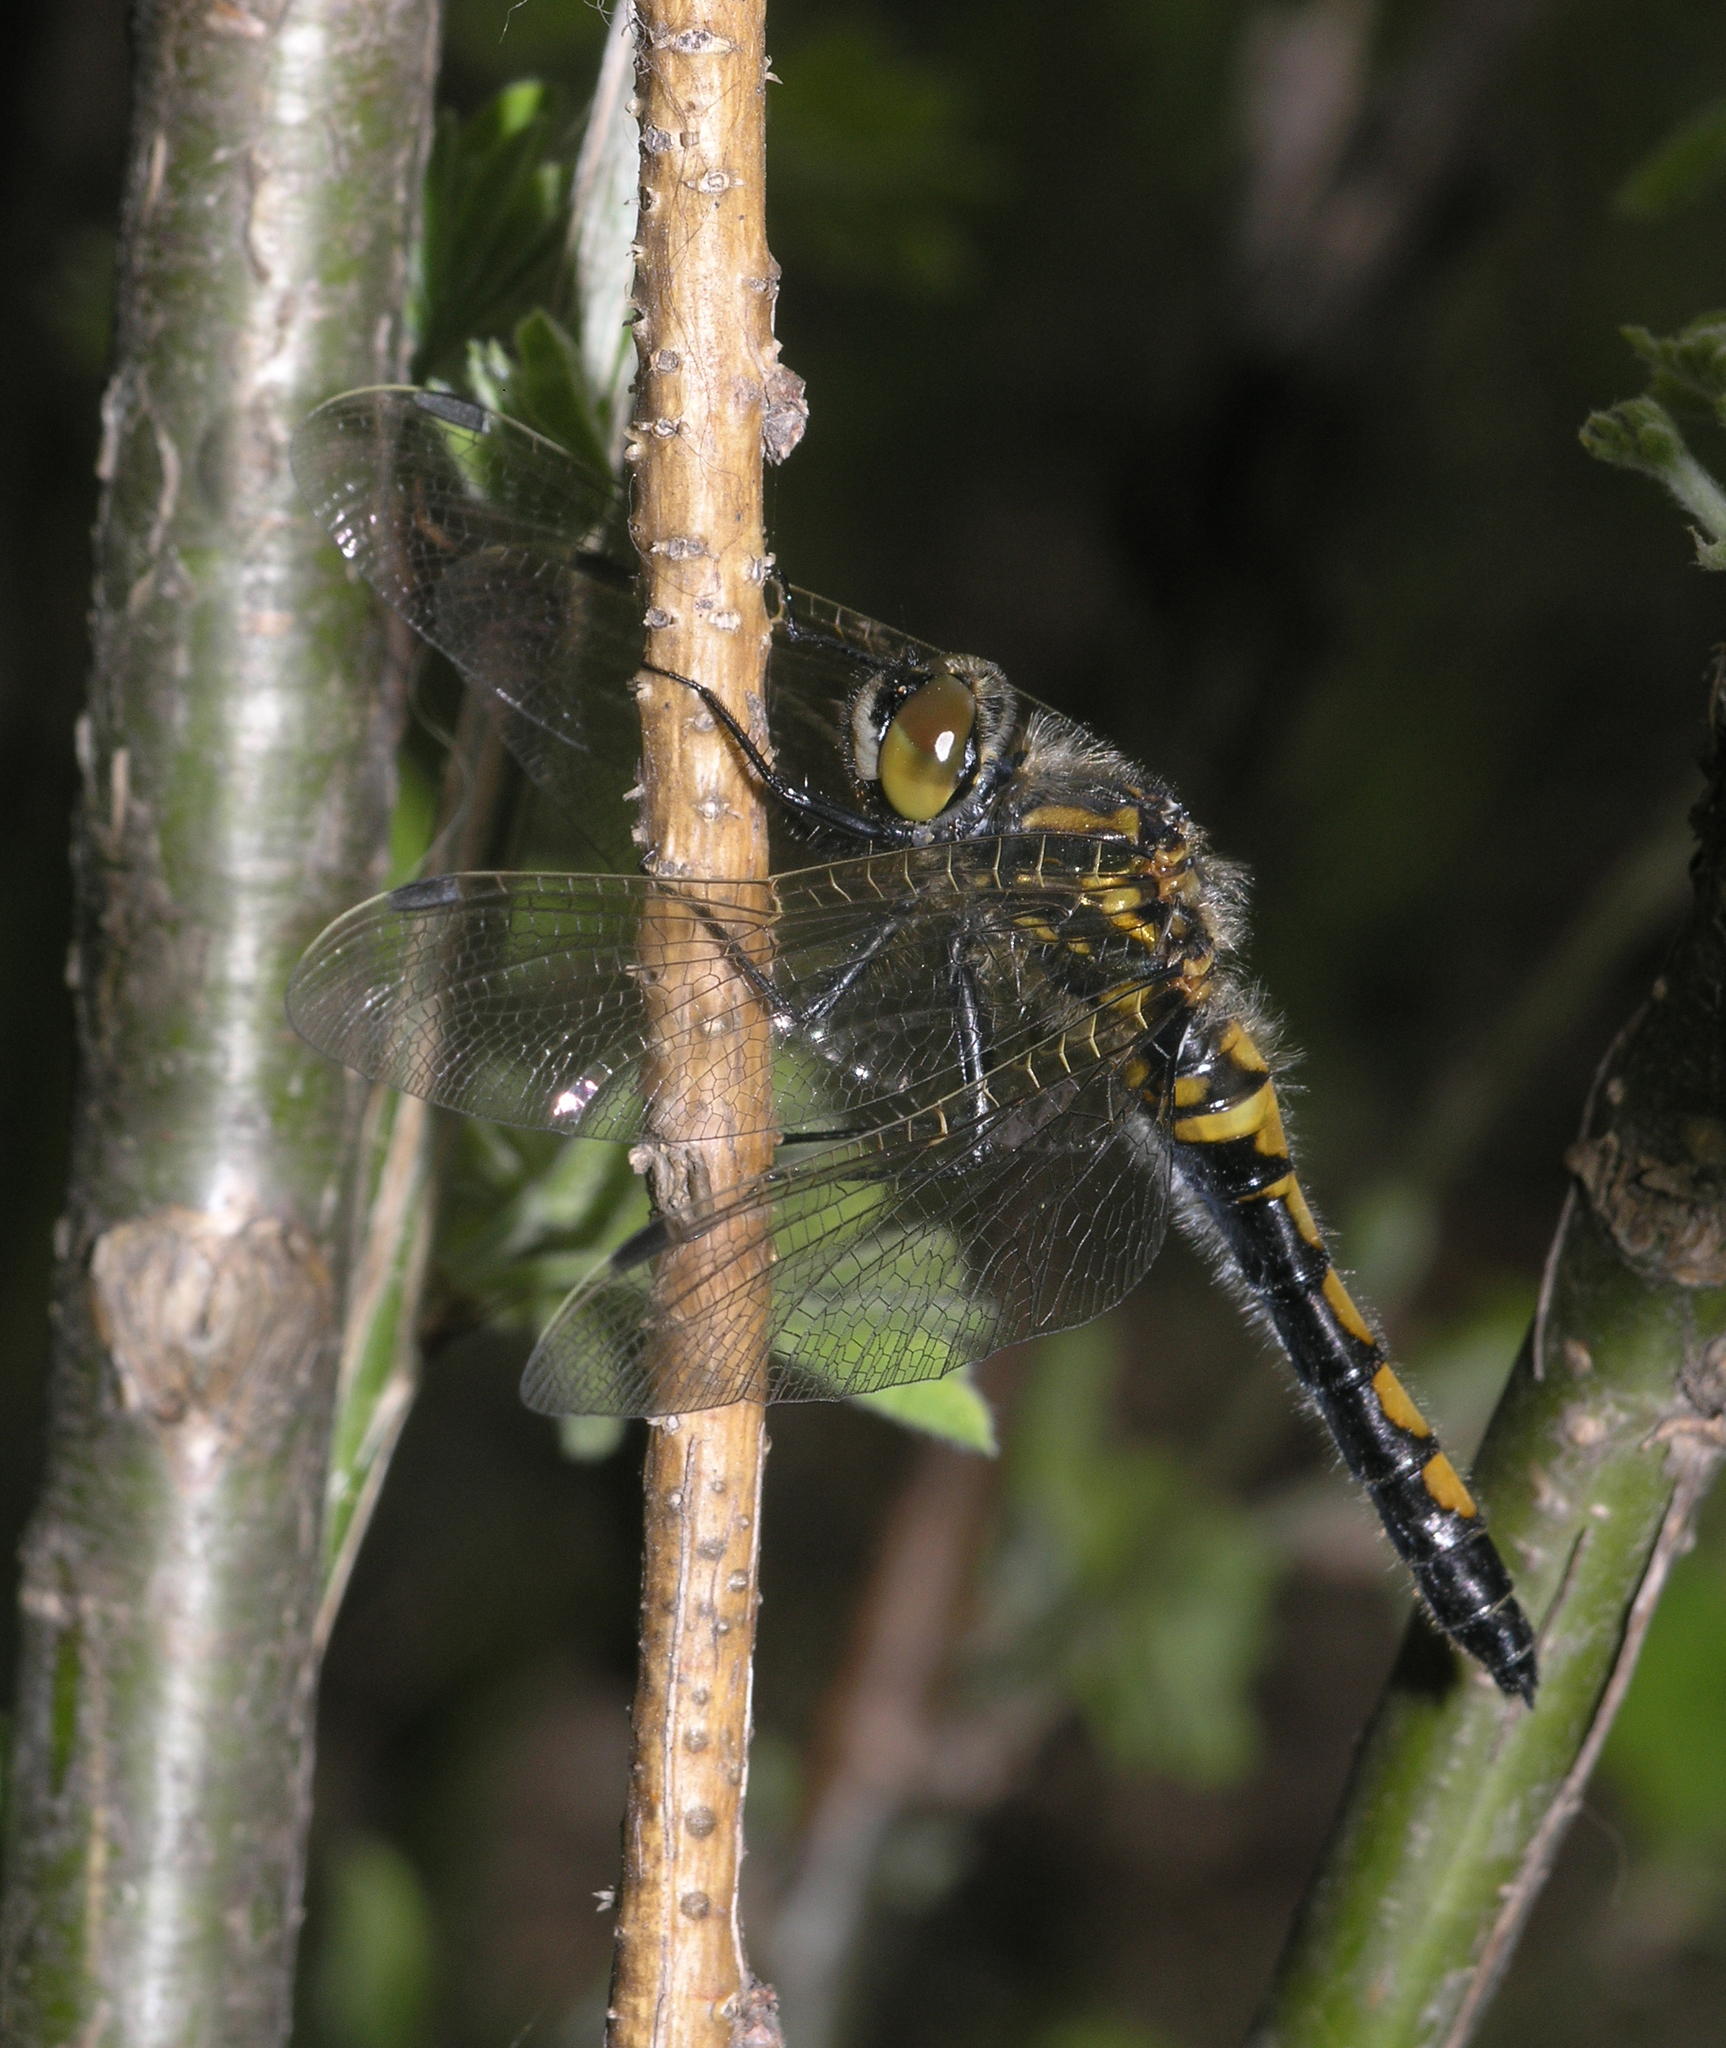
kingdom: Animalia
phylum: Arthropoda
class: Insecta
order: Odonata
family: Libellulidae
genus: Leucorrhinia
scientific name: Leucorrhinia rubicunda
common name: Ruby whiteface
